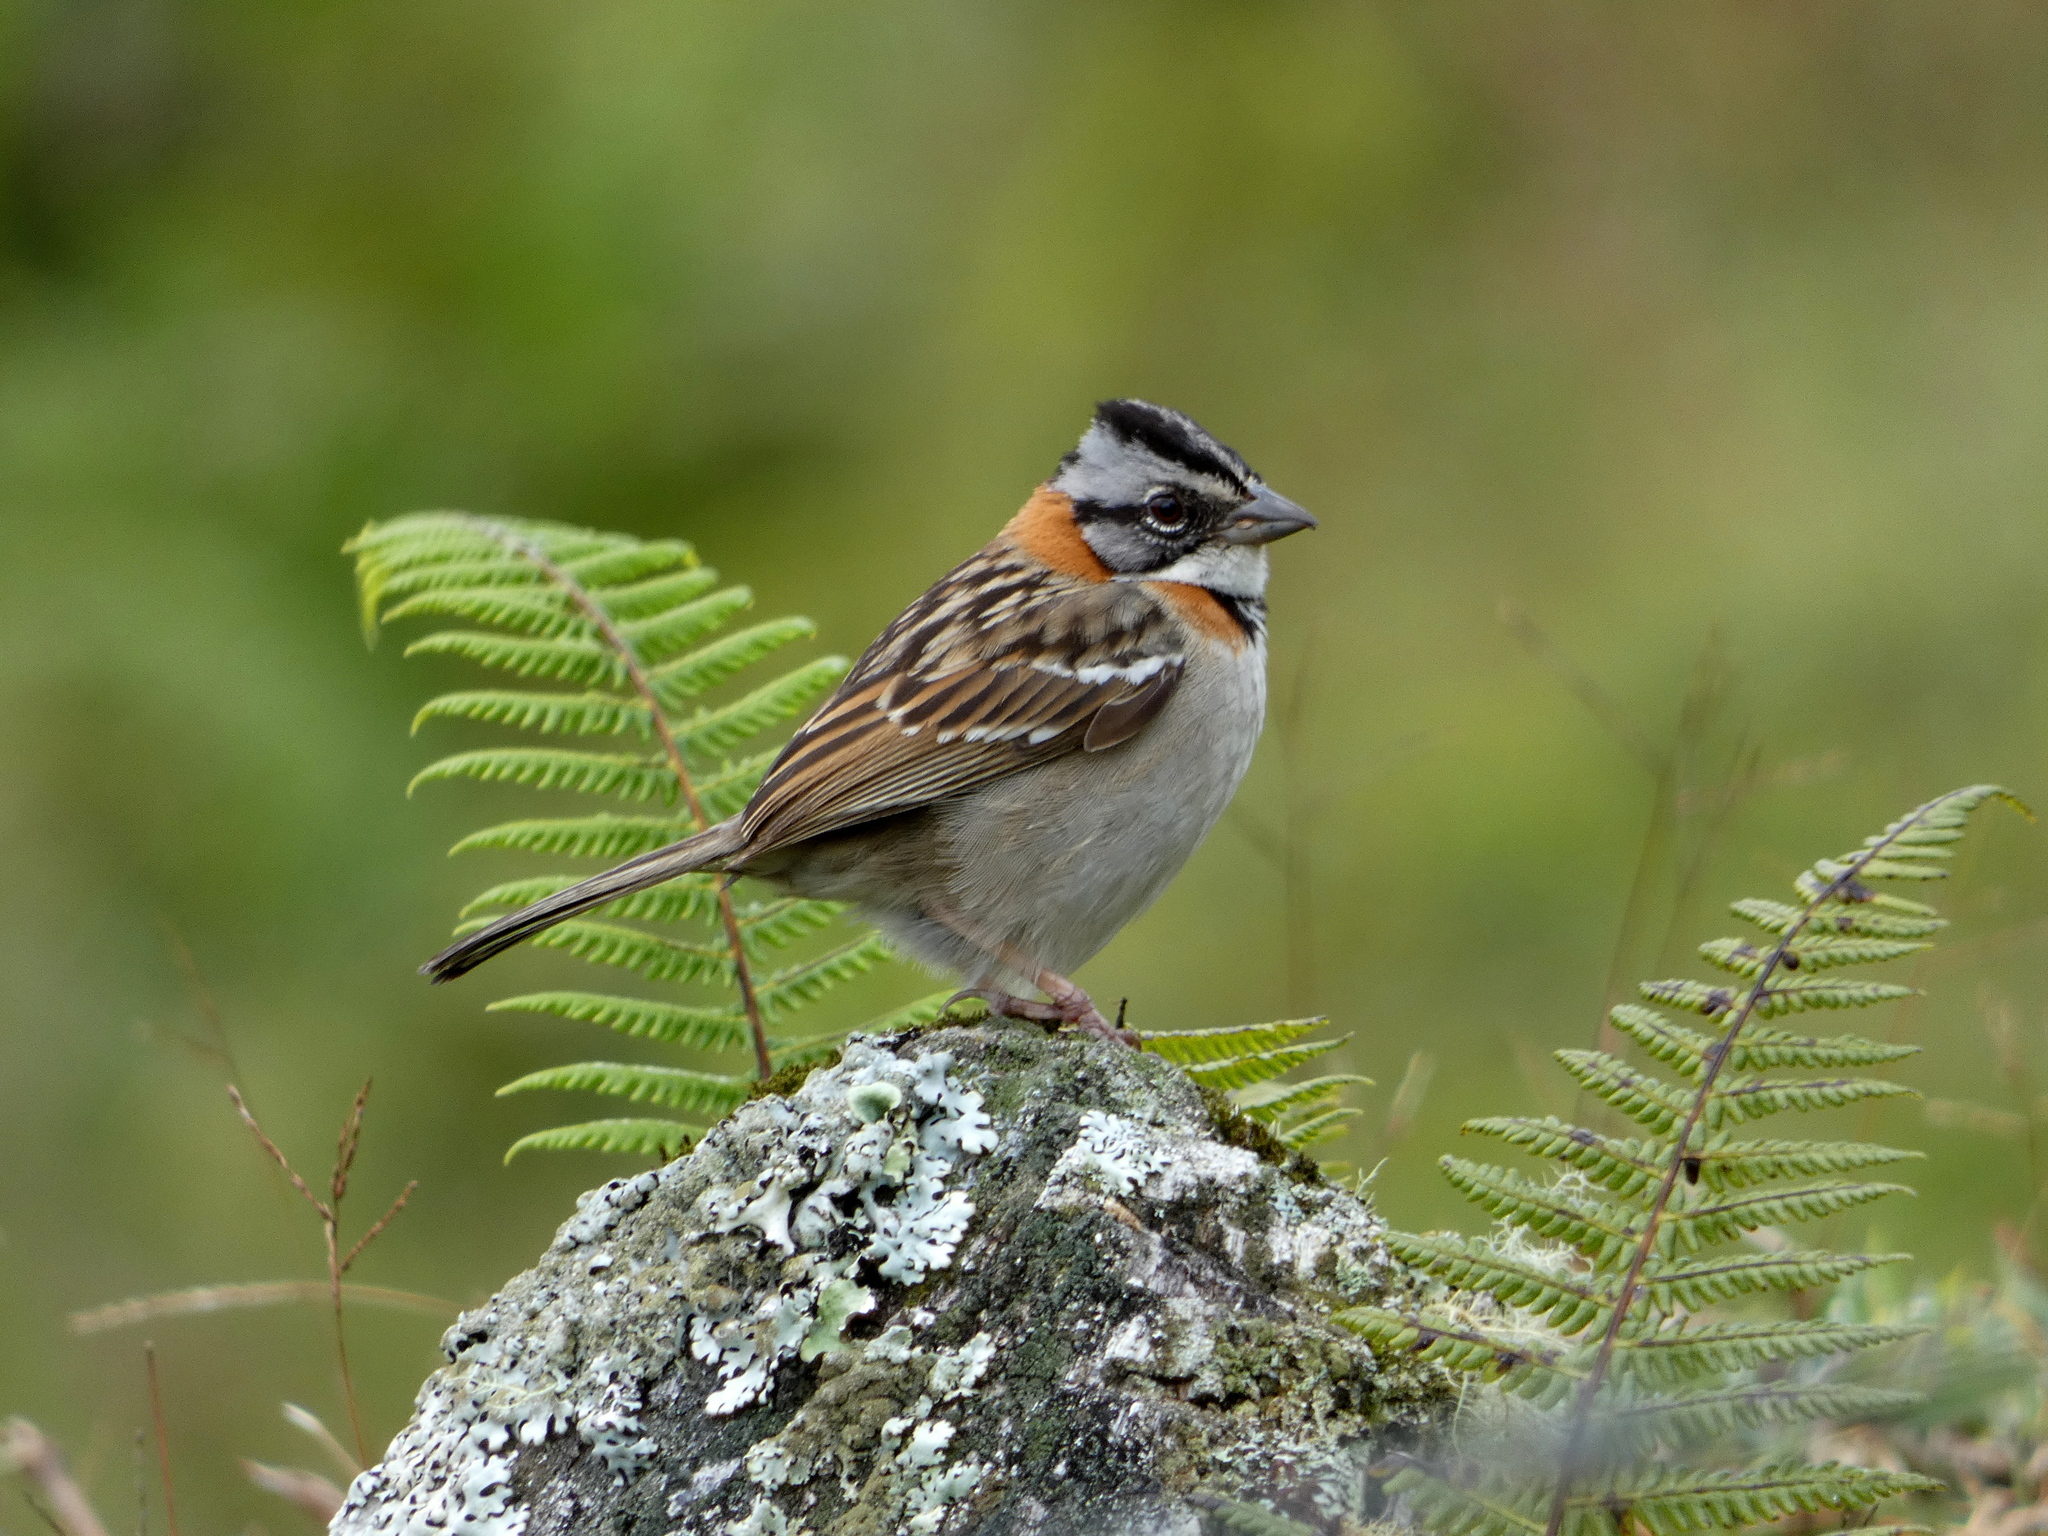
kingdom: Animalia
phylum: Chordata
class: Aves
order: Passeriformes
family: Passerellidae
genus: Zonotrichia
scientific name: Zonotrichia capensis
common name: Rufous-collared sparrow
